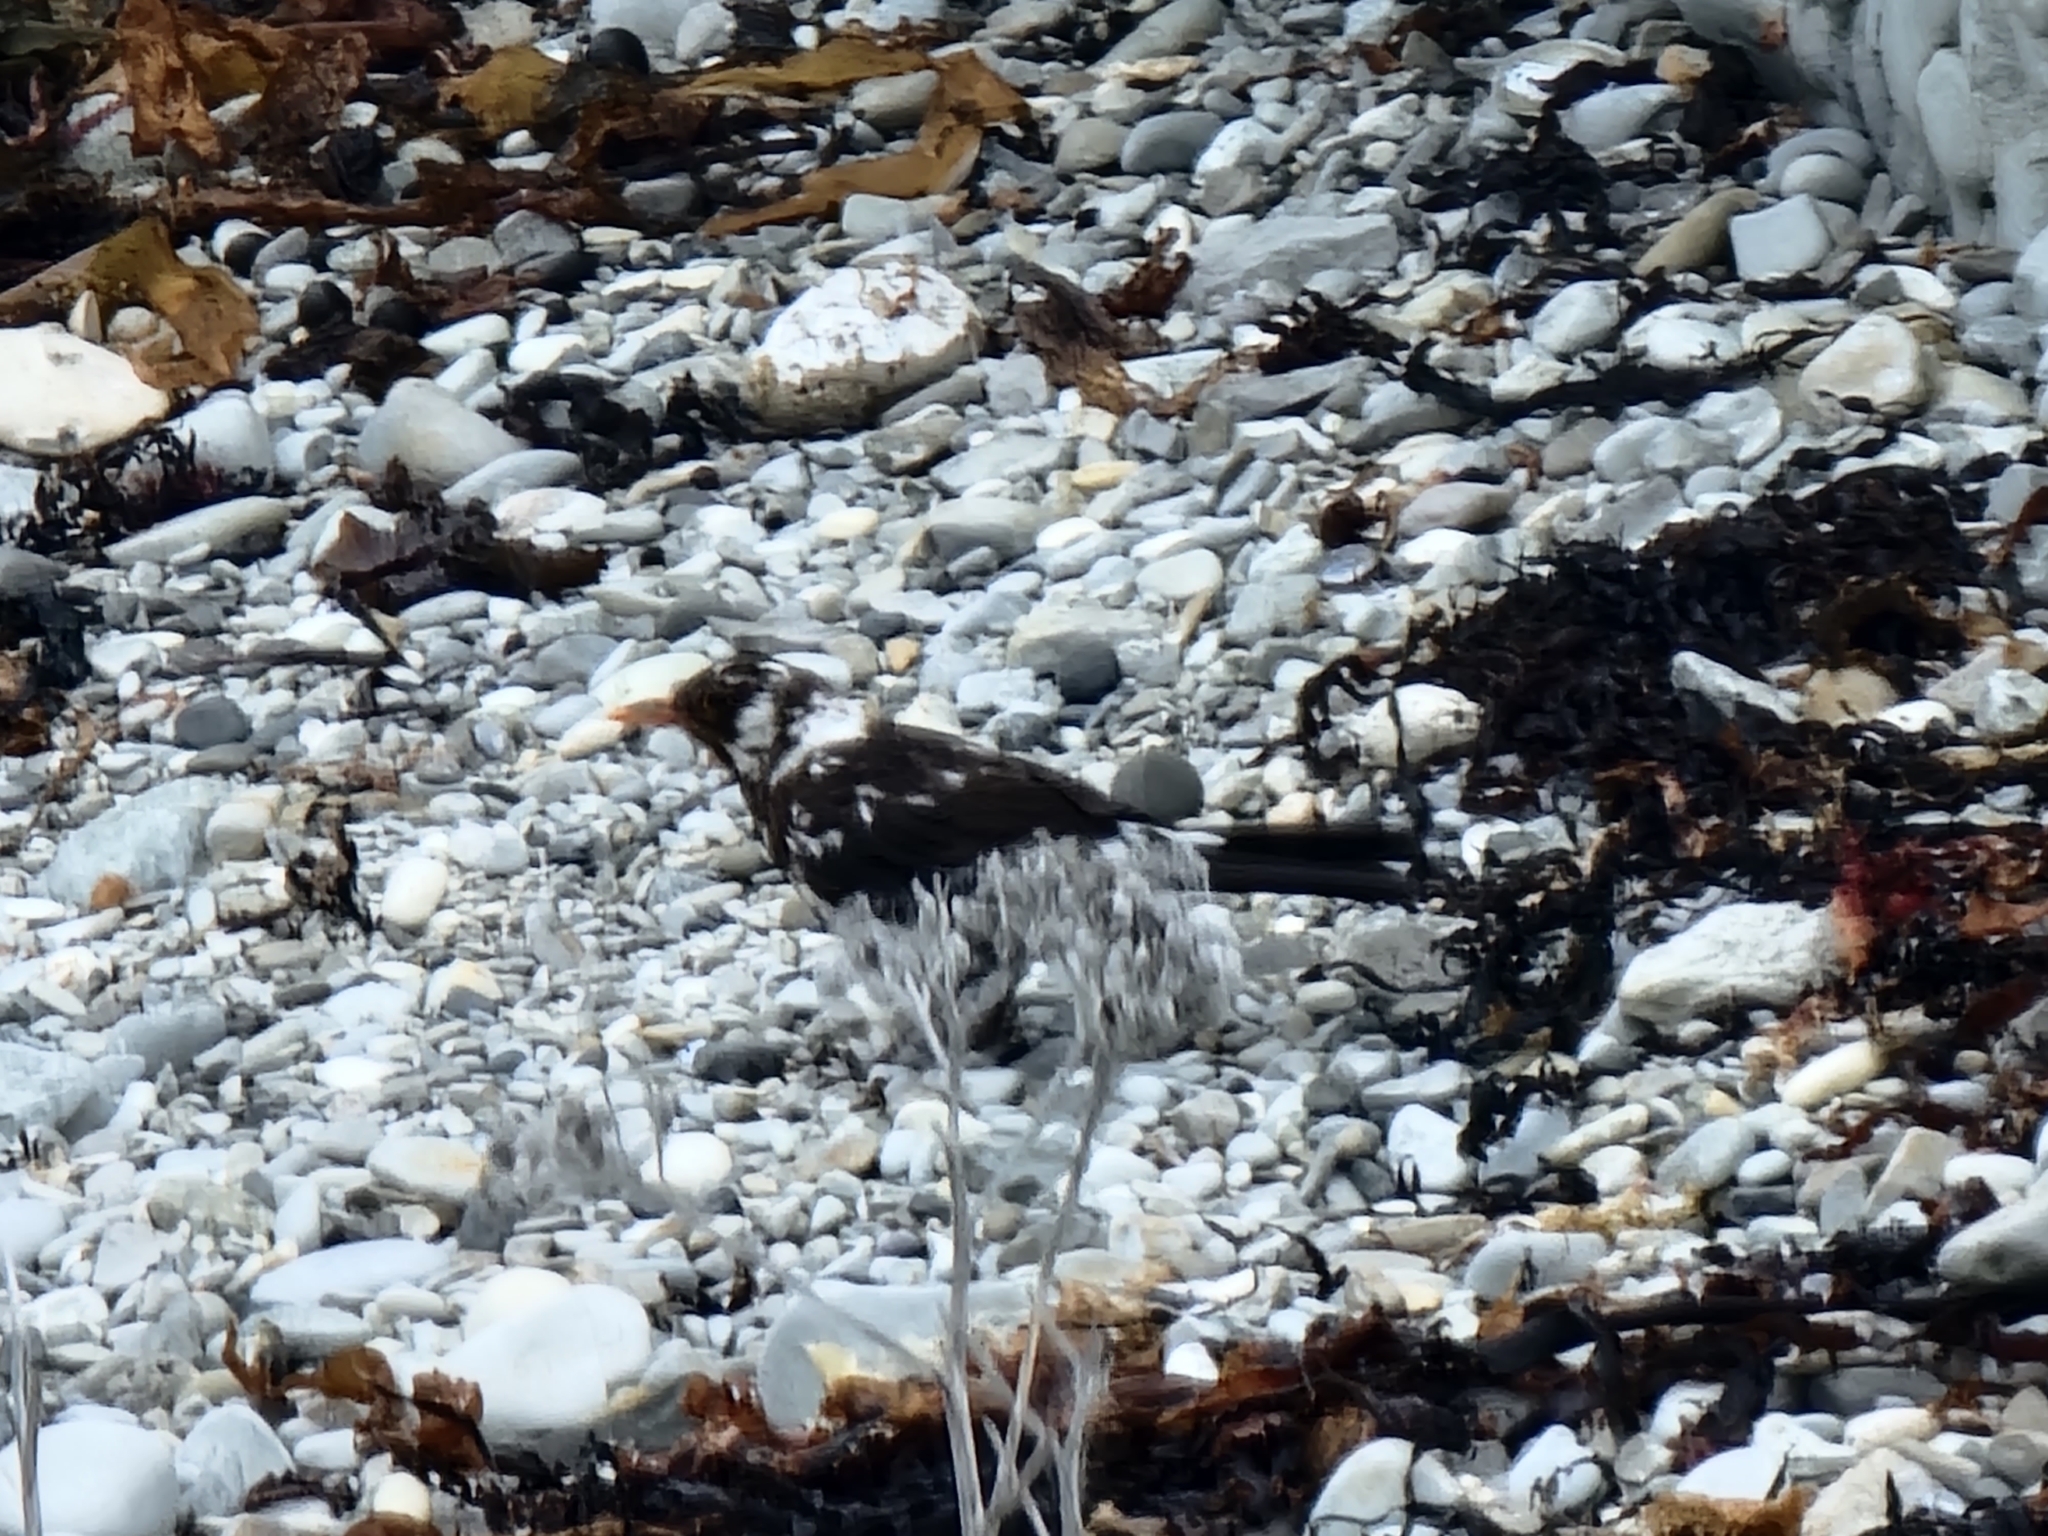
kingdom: Animalia
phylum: Chordata
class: Aves
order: Passeriformes
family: Turdidae
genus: Turdus
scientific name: Turdus merula
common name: Common blackbird
